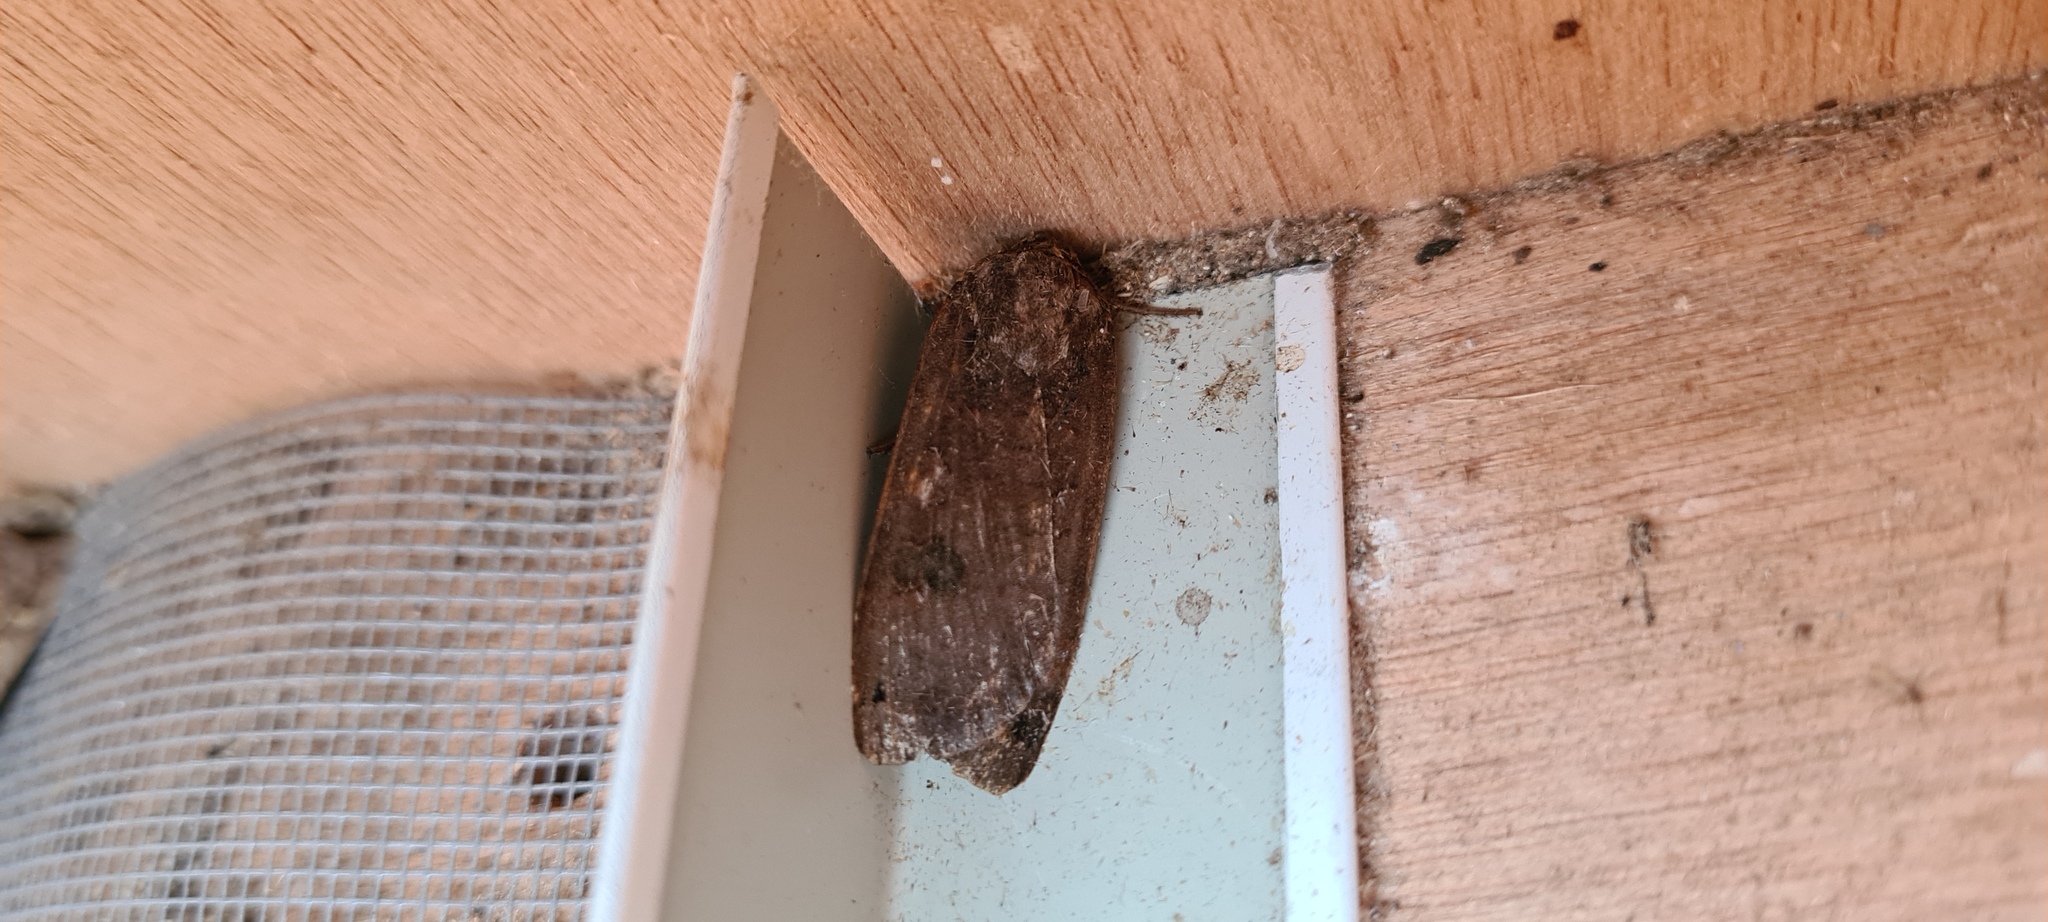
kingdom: Animalia
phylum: Arthropoda
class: Insecta
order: Lepidoptera
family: Noctuidae
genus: Noctua
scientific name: Noctua pronuba
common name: Large yellow underwing
